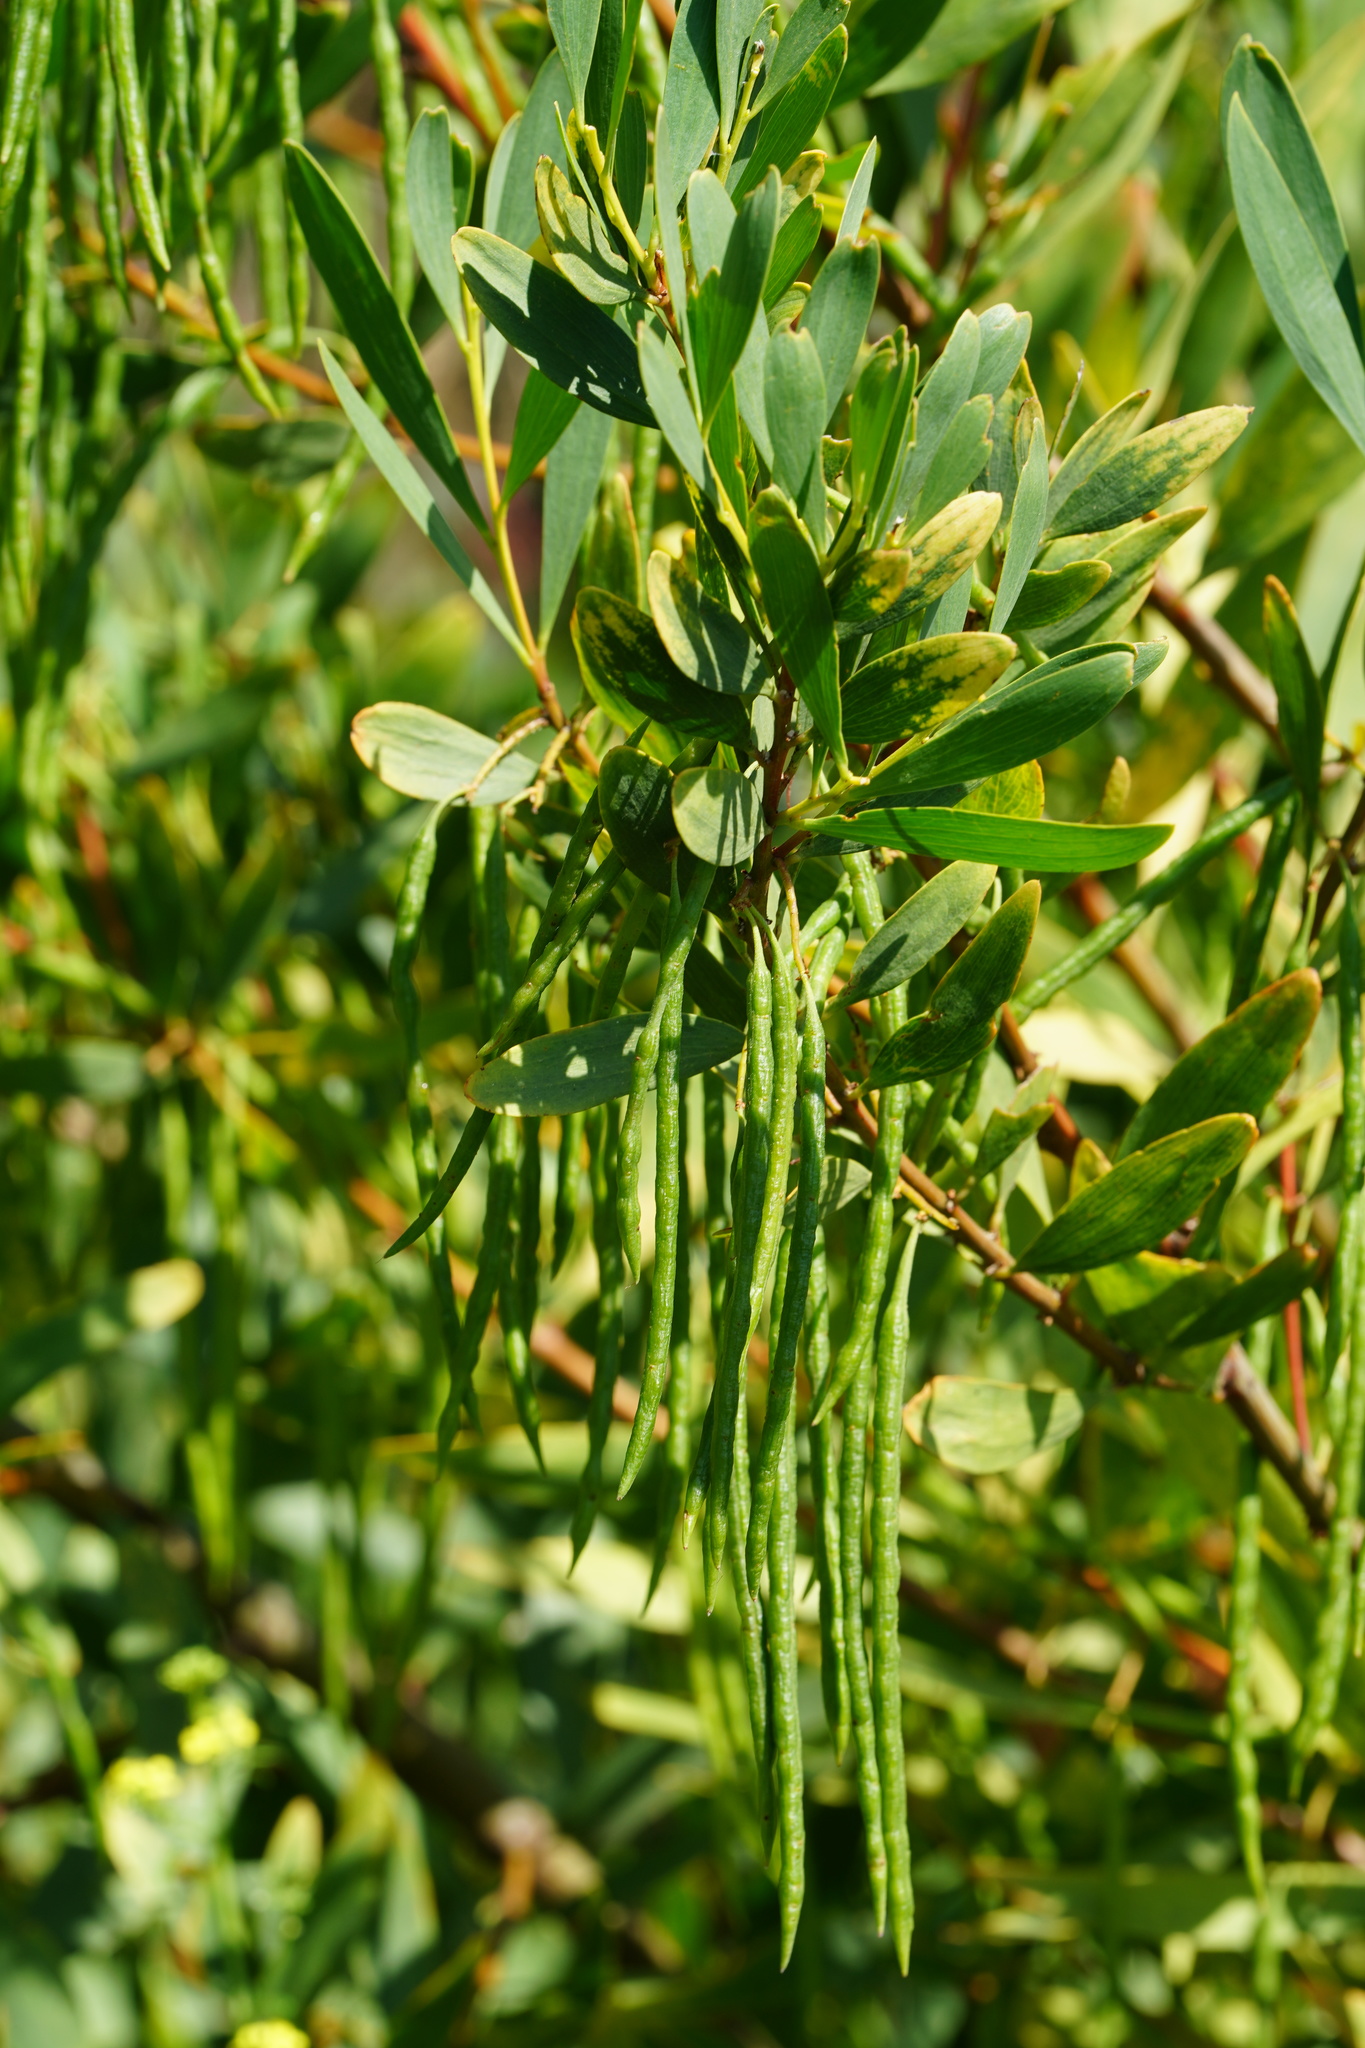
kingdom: Plantae
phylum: Tracheophyta
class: Magnoliopsida
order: Fabales
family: Fabaceae
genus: Acacia
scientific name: Acacia longifolia
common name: Sydney golden wattle
